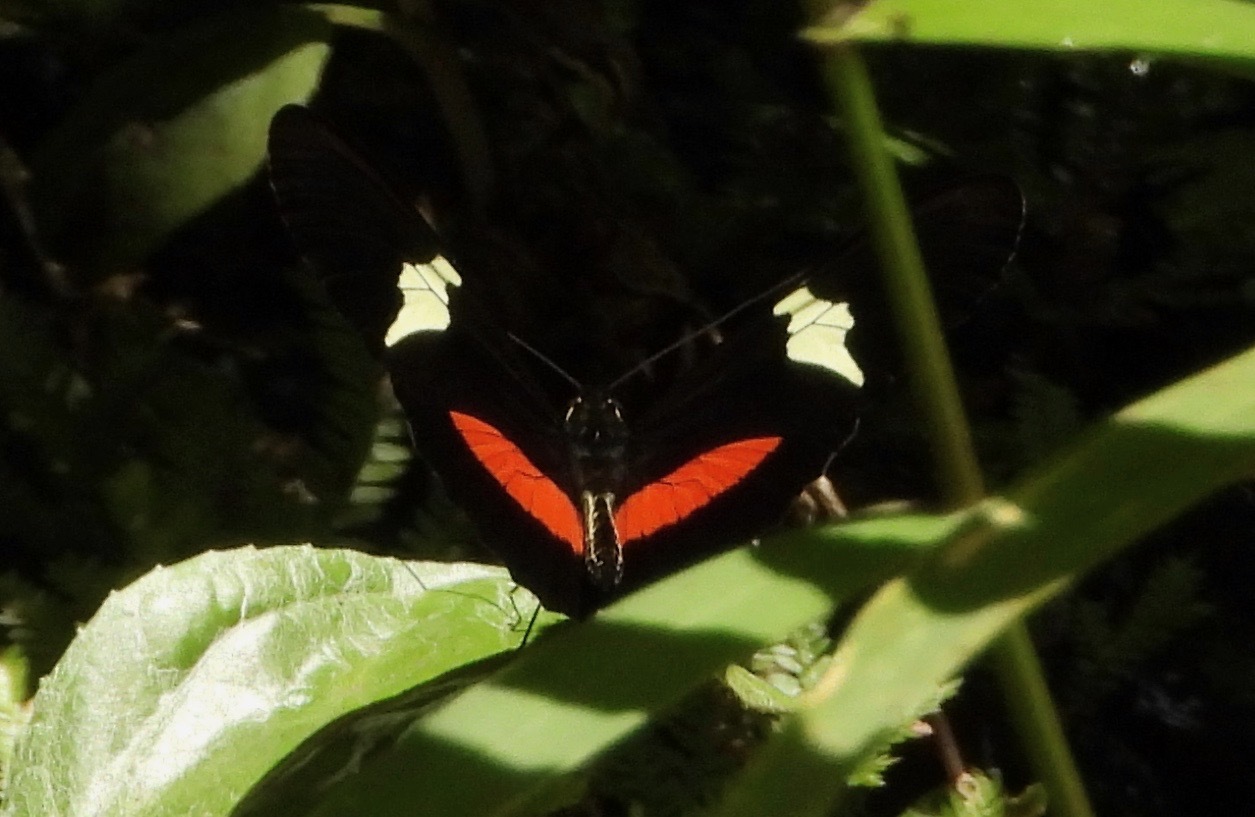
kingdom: Animalia
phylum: Arthropoda
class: Insecta
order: Lepidoptera
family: Nymphalidae
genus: Heliconius
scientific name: Heliconius clysonymus
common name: Clysonymus longwing
